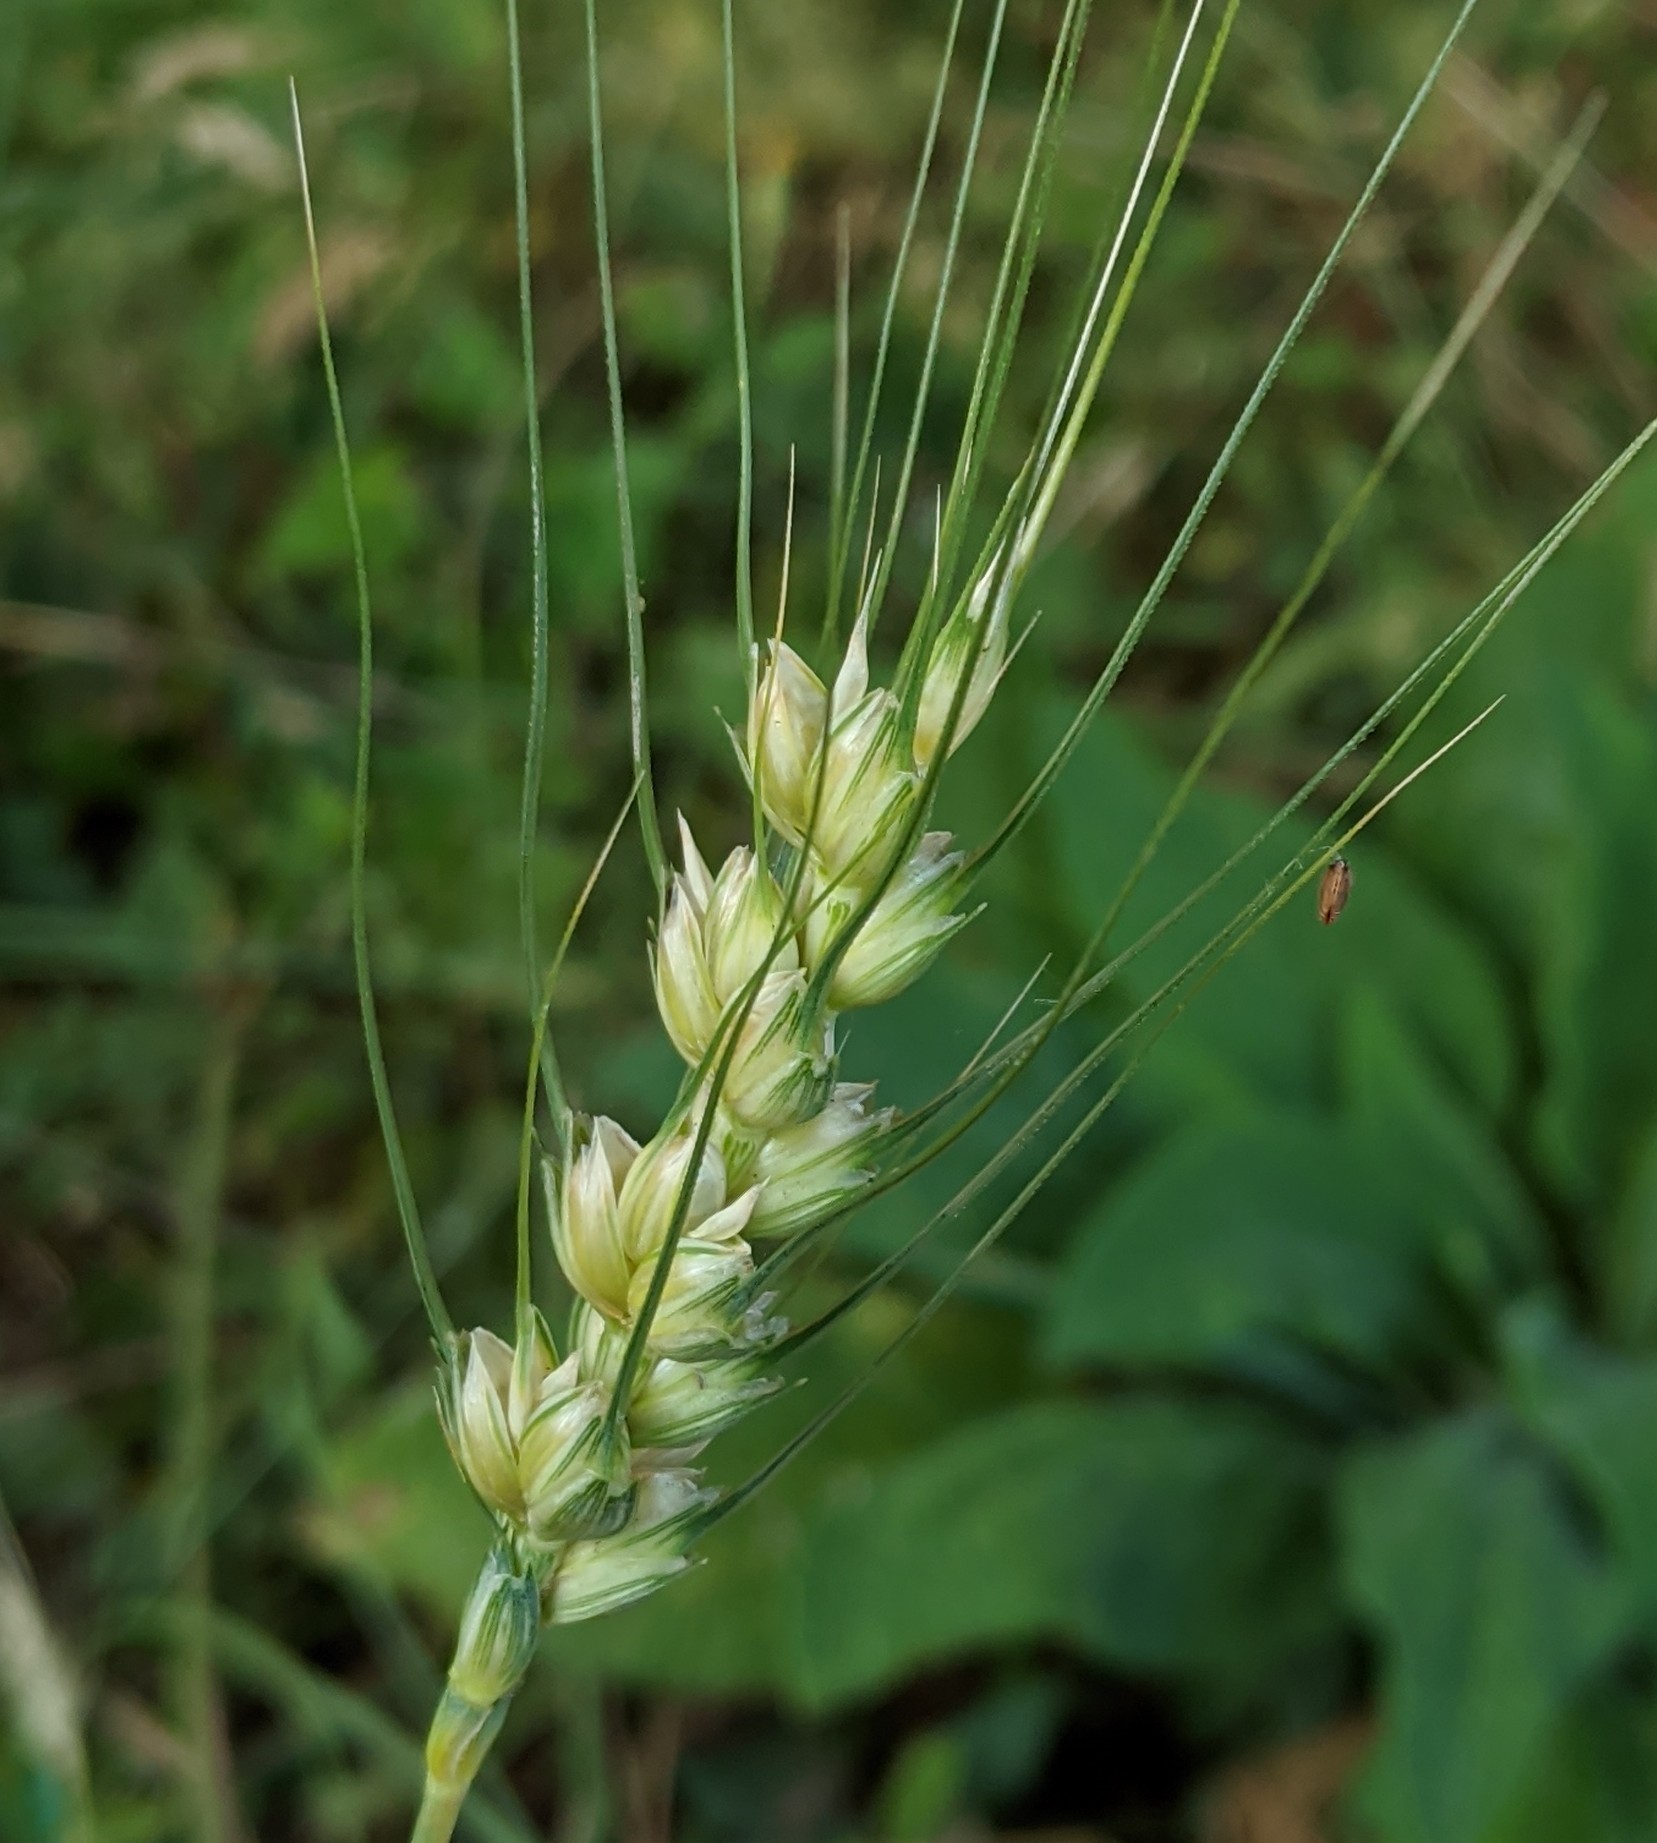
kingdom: Plantae
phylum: Tracheophyta
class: Liliopsida
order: Poales
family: Poaceae
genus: Triticum
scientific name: Triticum aestivum
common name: Common wheat
